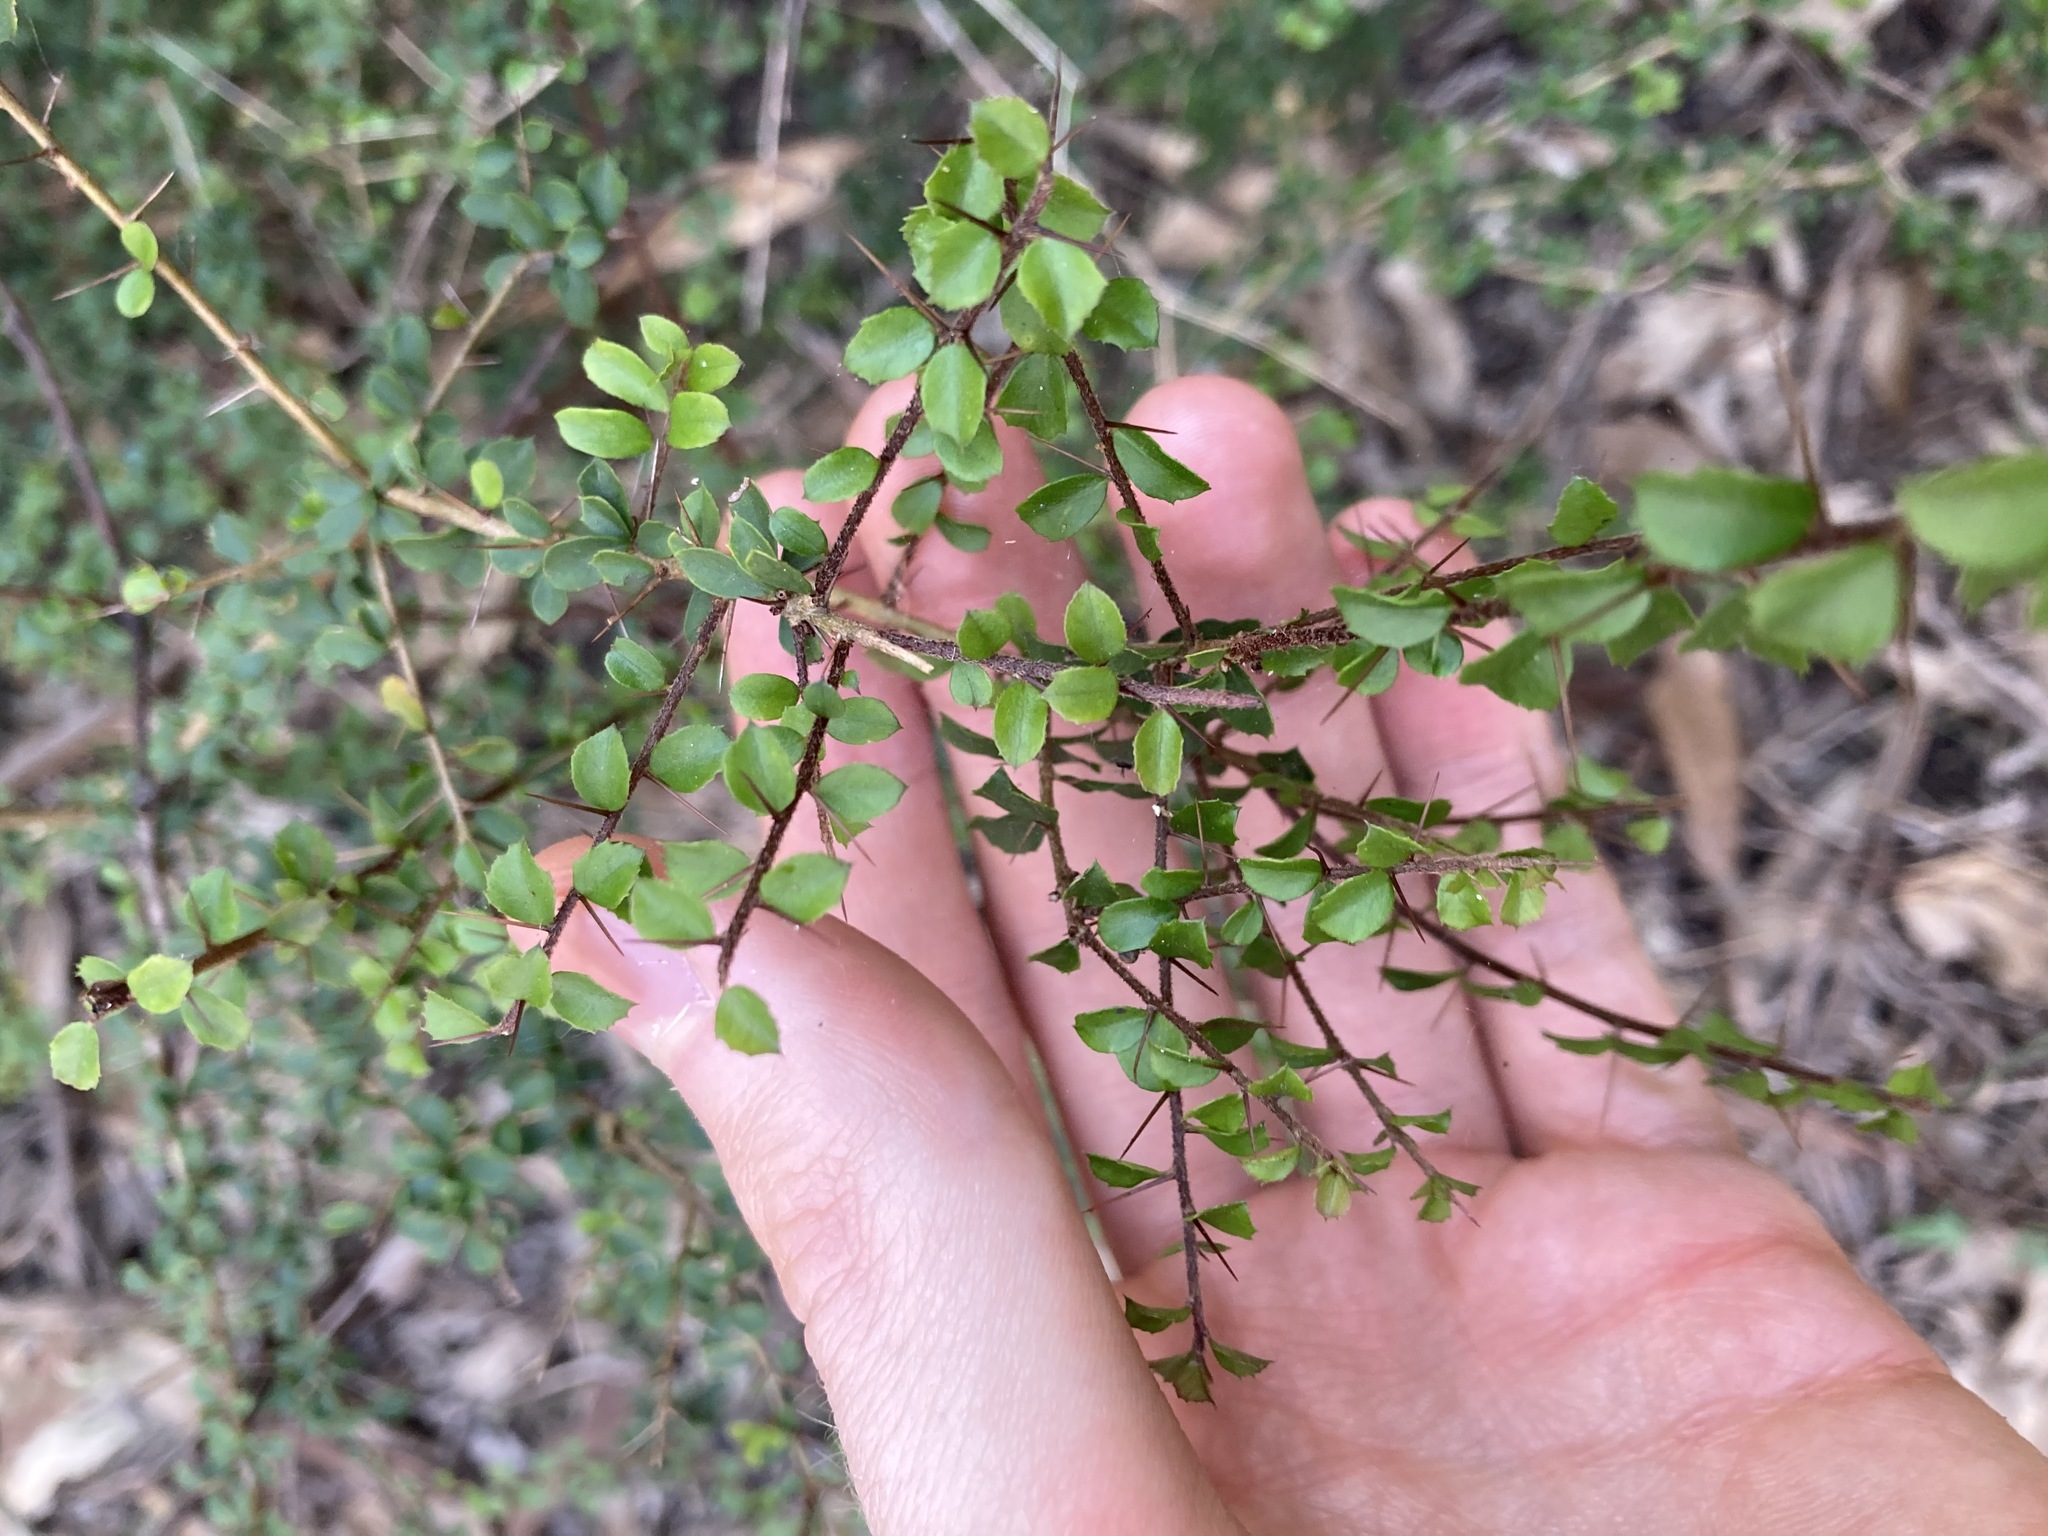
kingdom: Plantae
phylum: Tracheophyta
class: Magnoliopsida
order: Apiales
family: Pittosporaceae
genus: Pittosporum
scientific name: Pittosporum multiflorum
